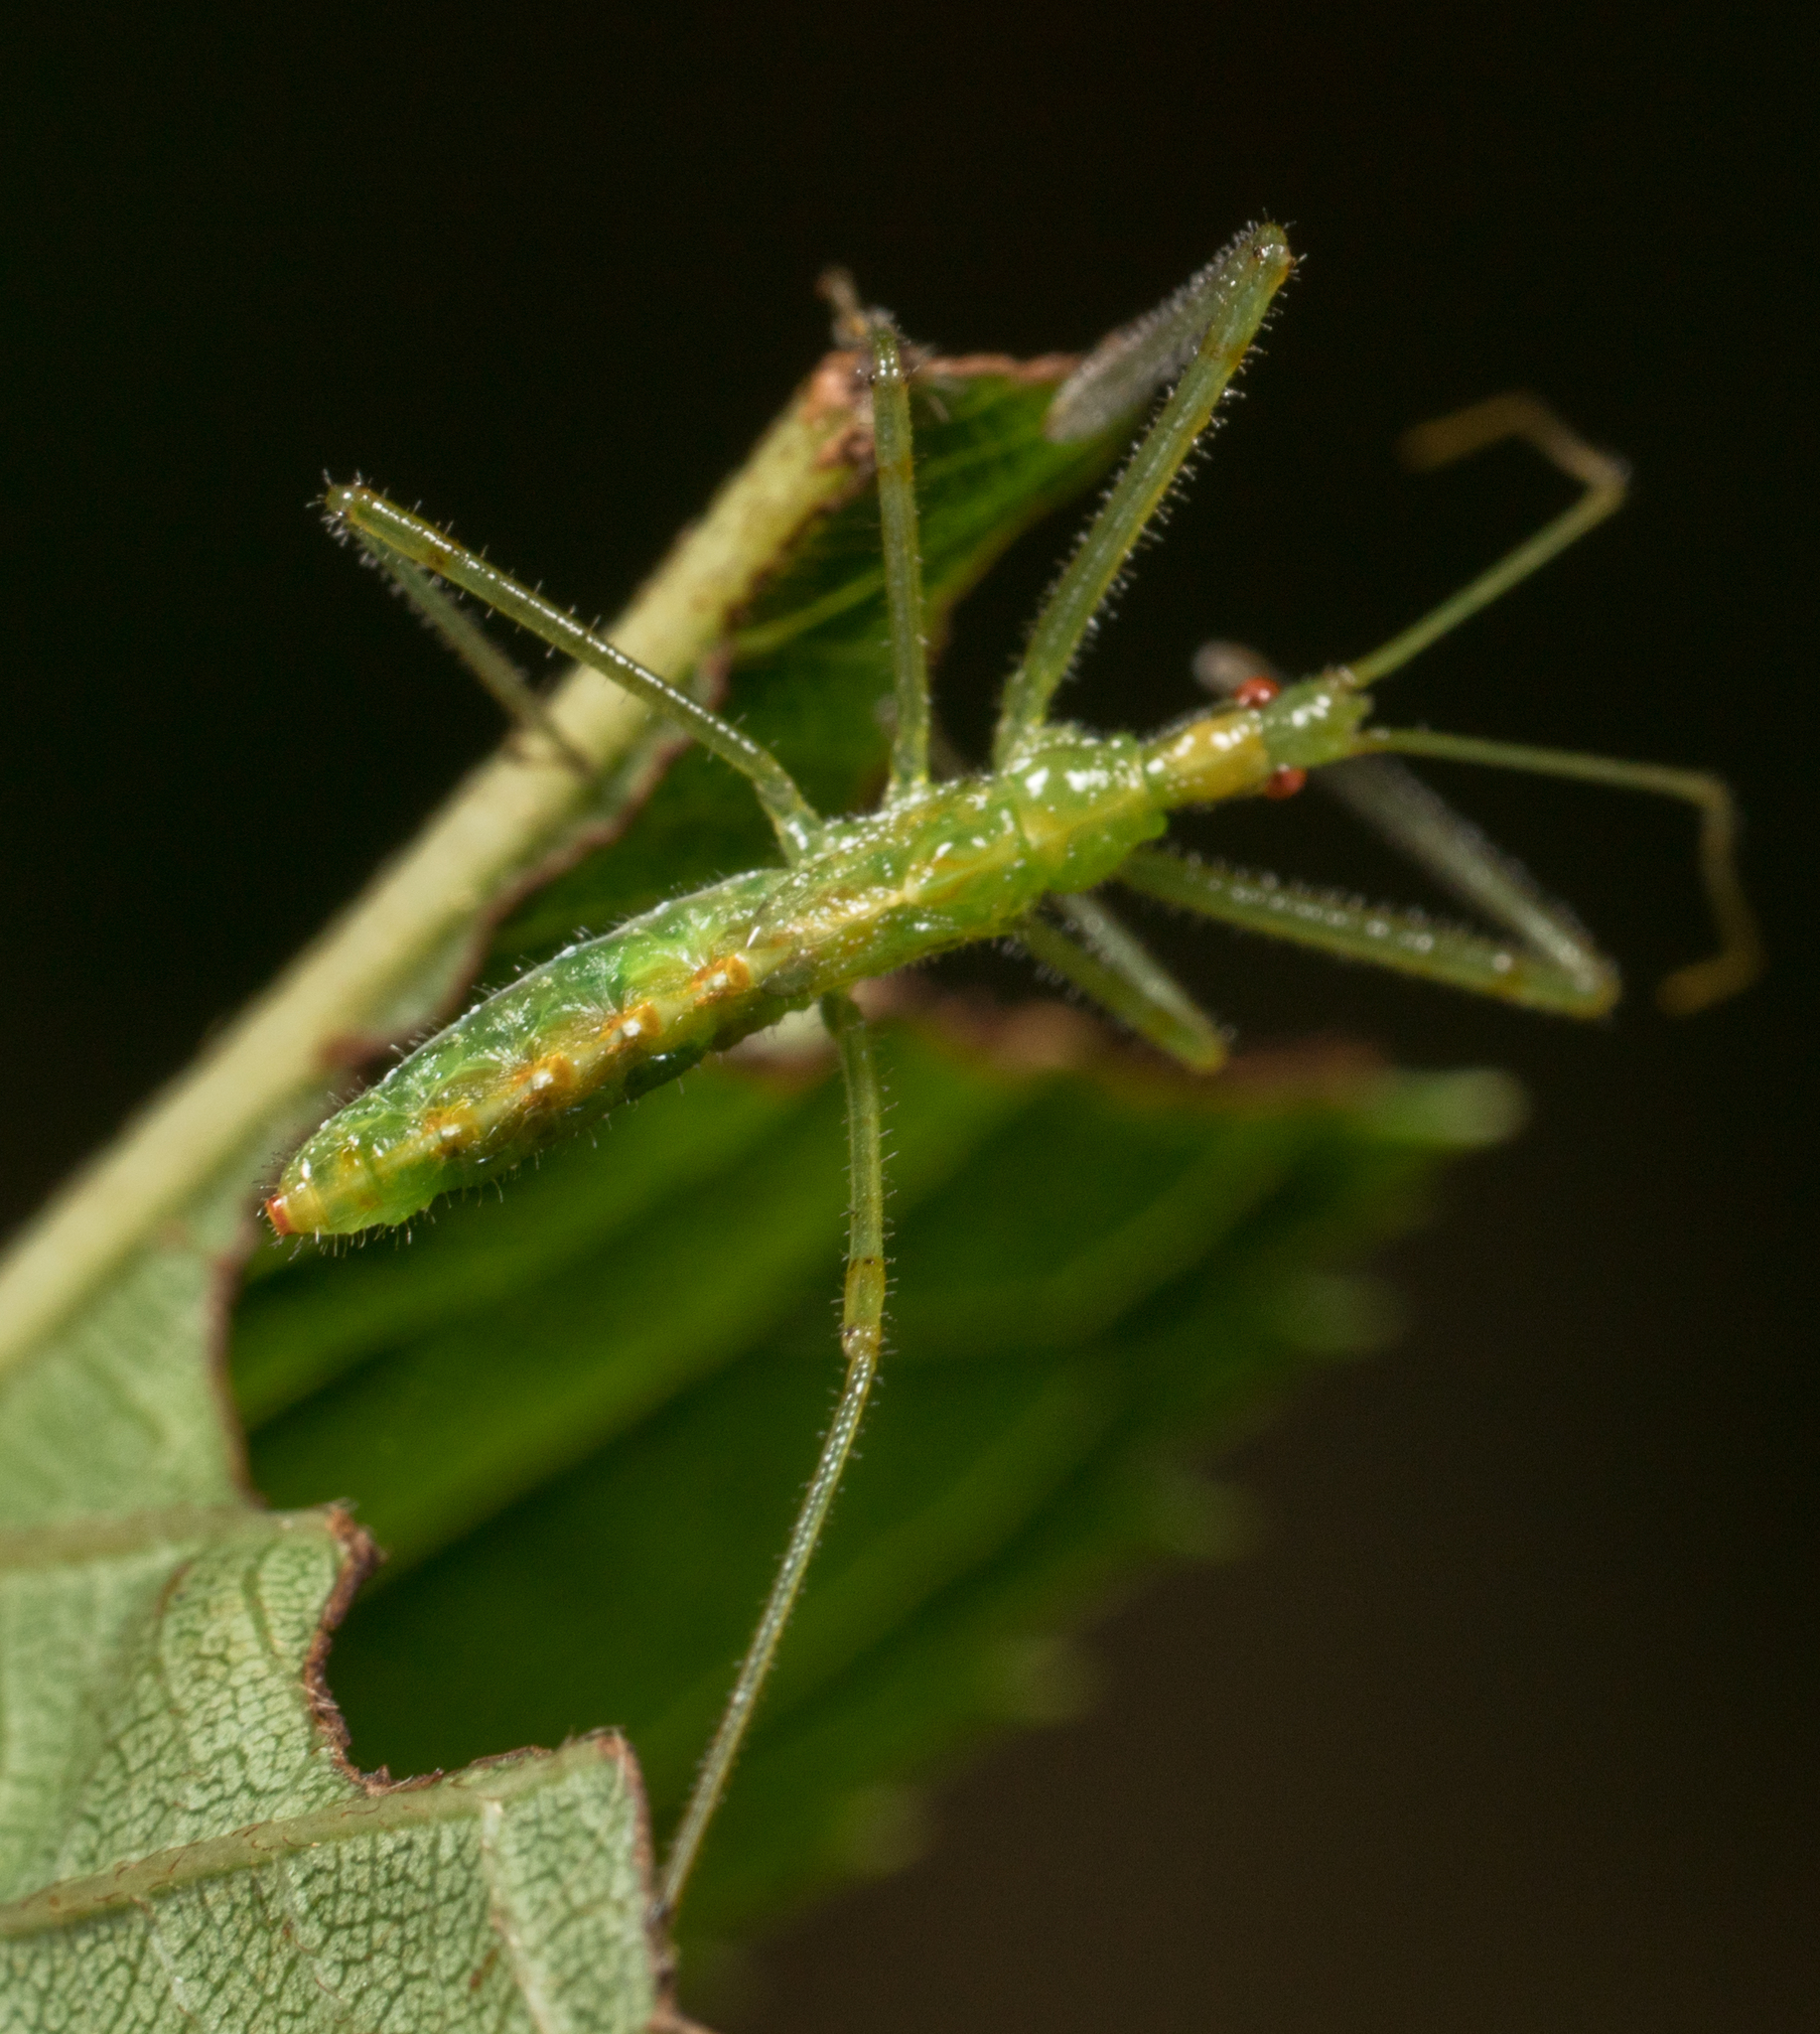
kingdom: Animalia
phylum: Arthropoda
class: Insecta
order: Hemiptera
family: Reduviidae
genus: Zelus
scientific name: Zelus luridus
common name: Pale green assassin bug
